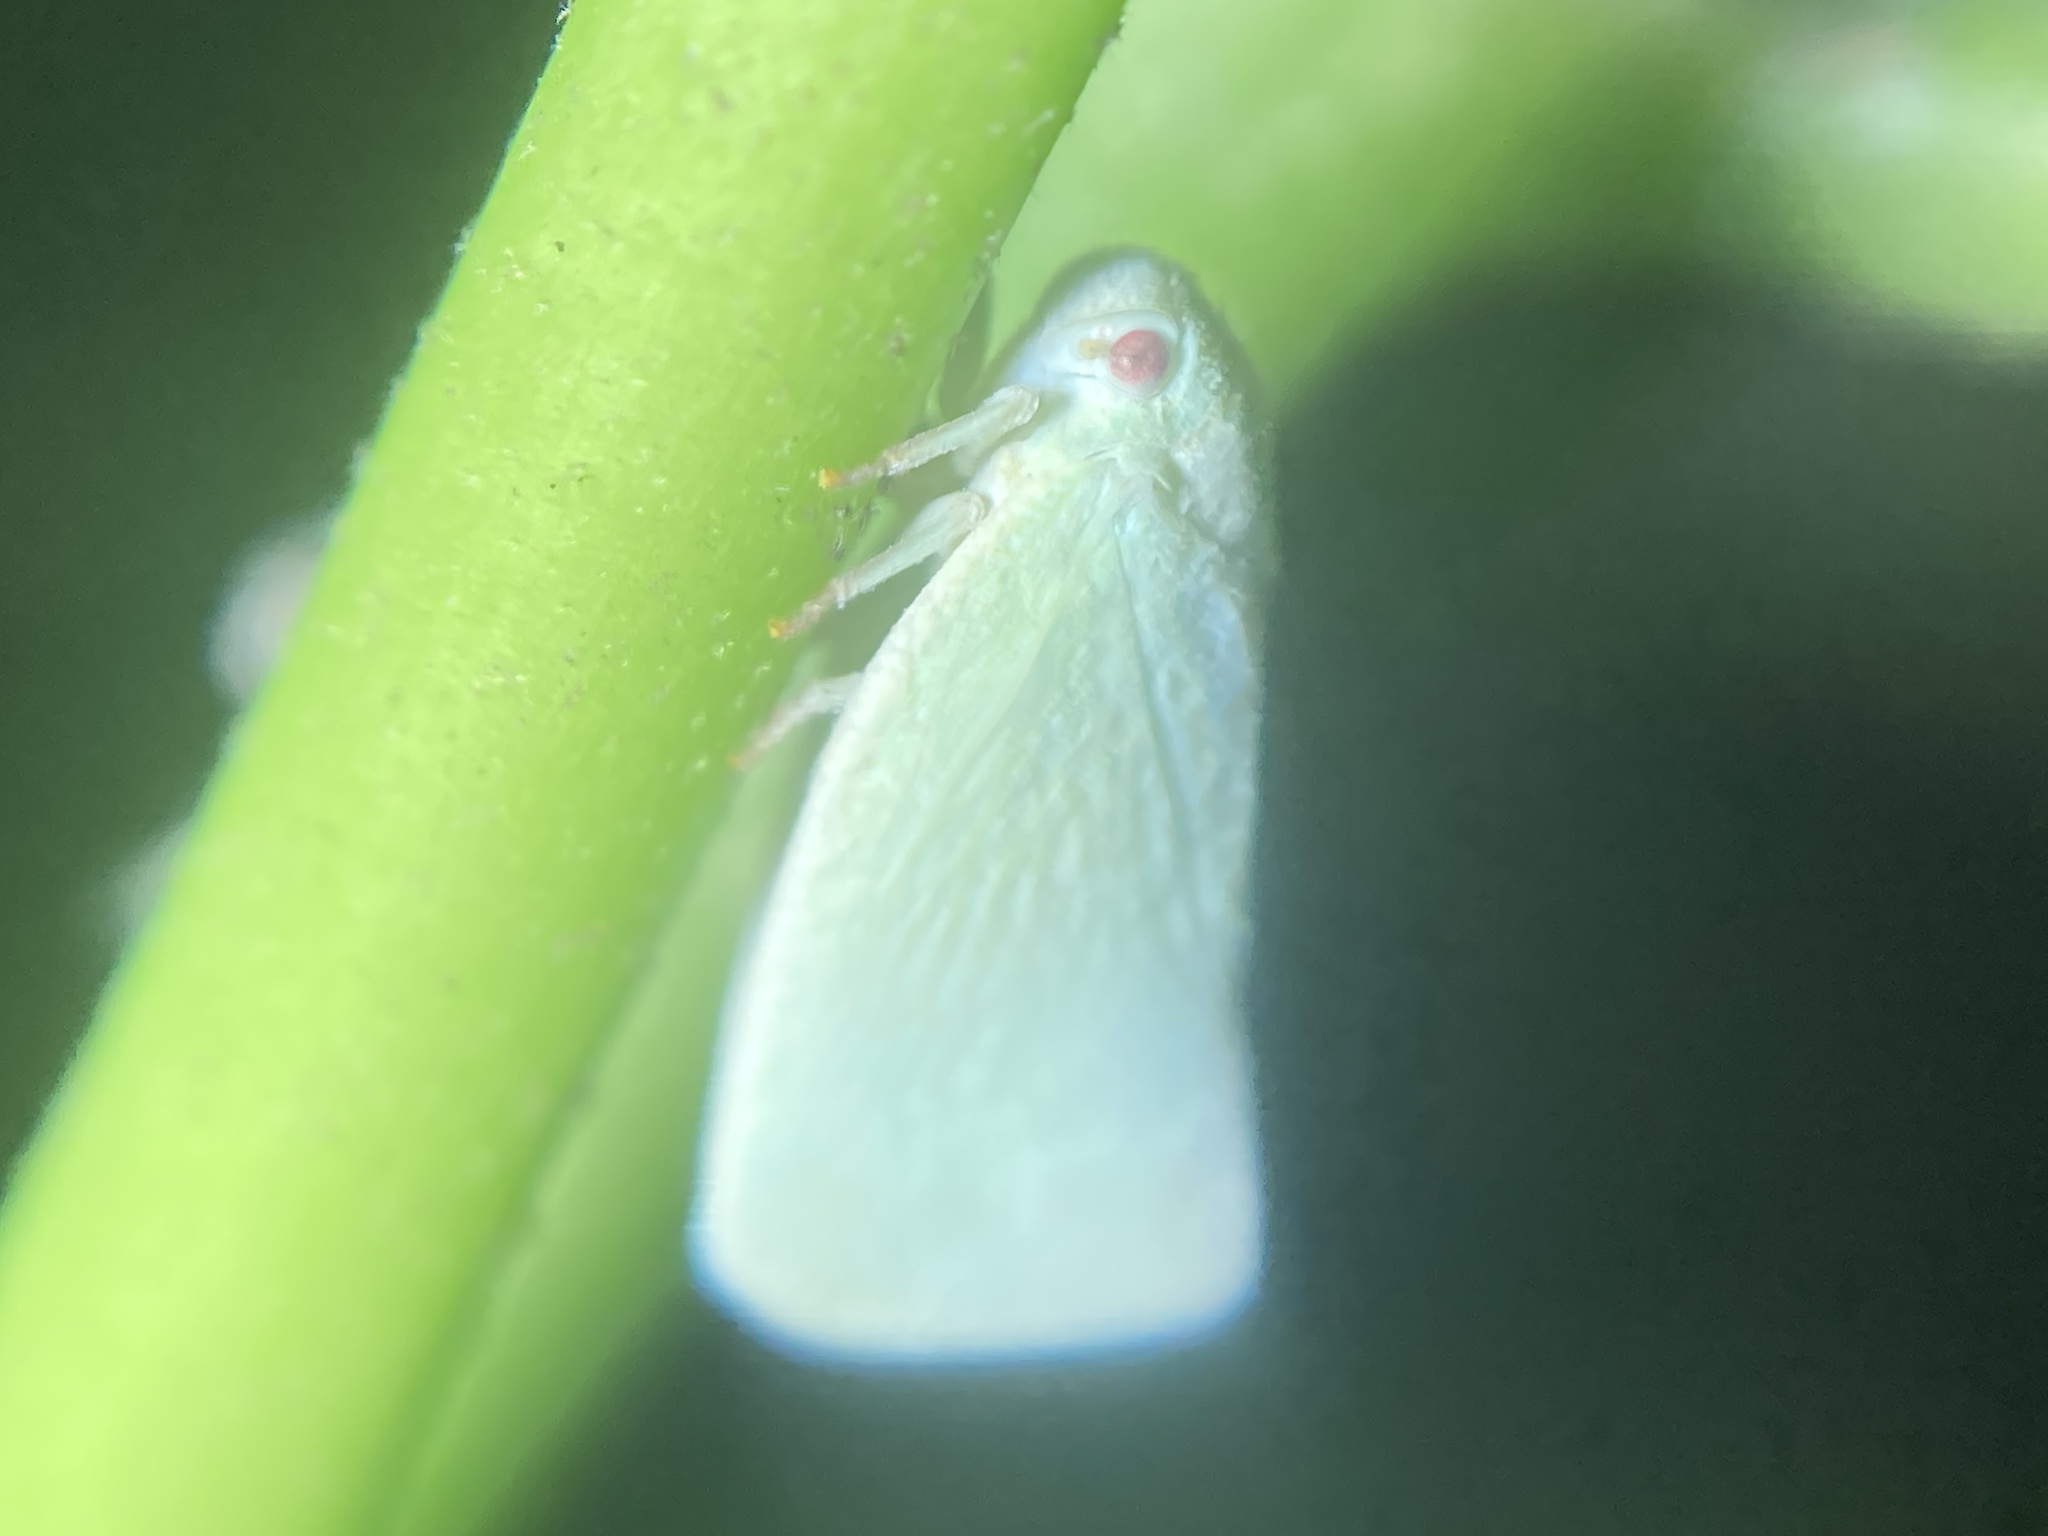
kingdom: Animalia
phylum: Arthropoda
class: Insecta
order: Hemiptera
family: Flatidae
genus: Flatormenis
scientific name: Flatormenis proxima
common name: Northern flatid planthopper
